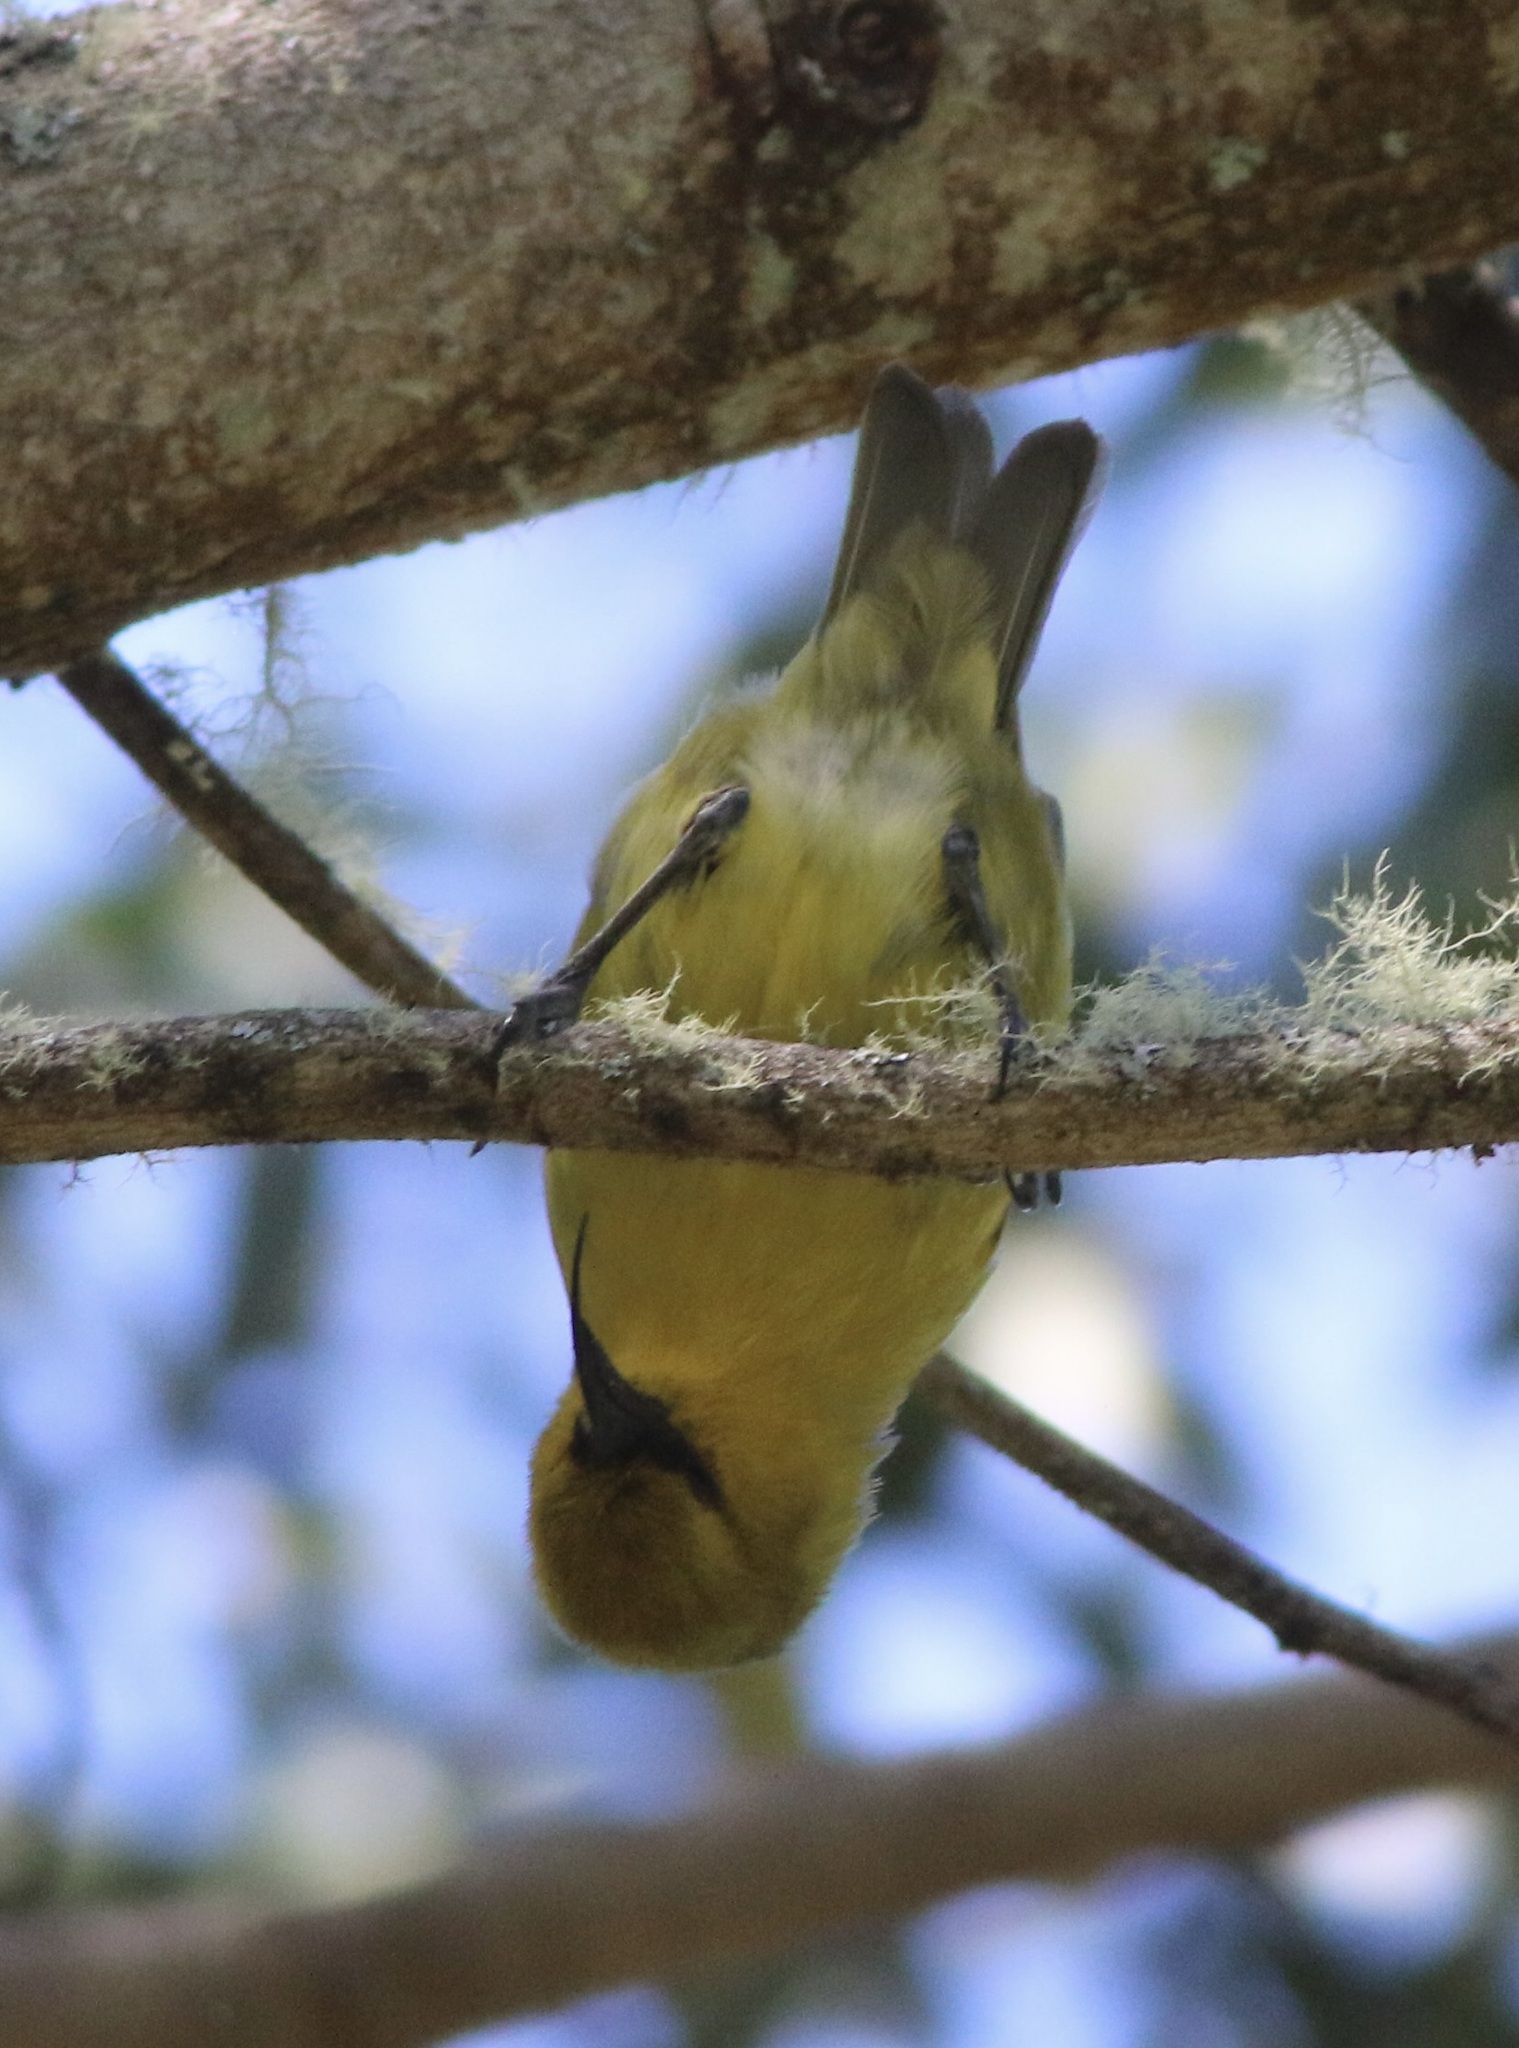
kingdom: Animalia
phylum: Chordata
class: Aves
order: Passeriformes
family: Fringillidae
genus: Hemignathus
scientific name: Hemignathus wilsoni
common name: Akiapolaau
